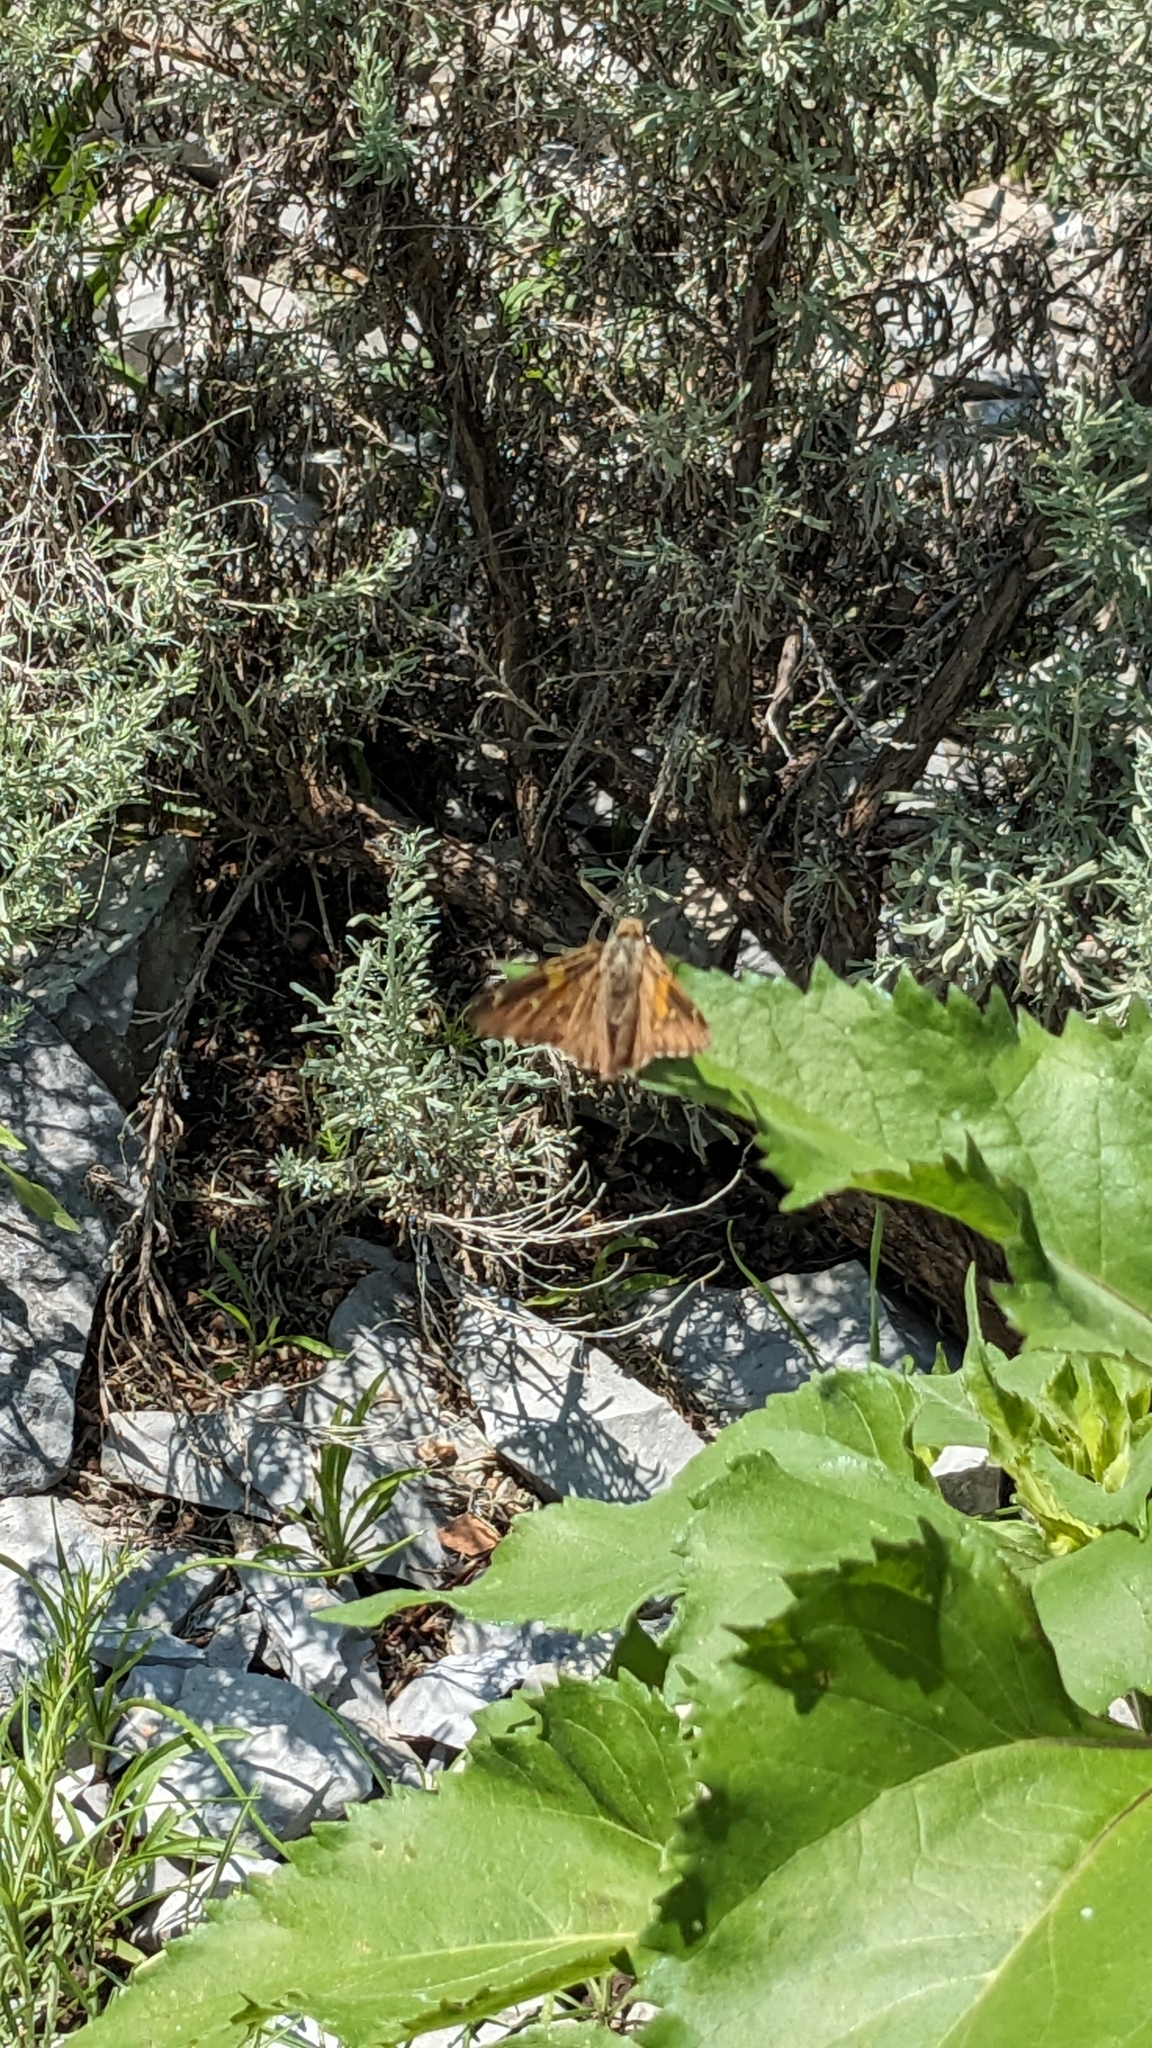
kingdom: Animalia
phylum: Arthropoda
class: Insecta
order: Lepidoptera
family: Hesperiidae
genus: Epargyreus
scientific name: Epargyreus clarus
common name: Silver-spotted skipper
